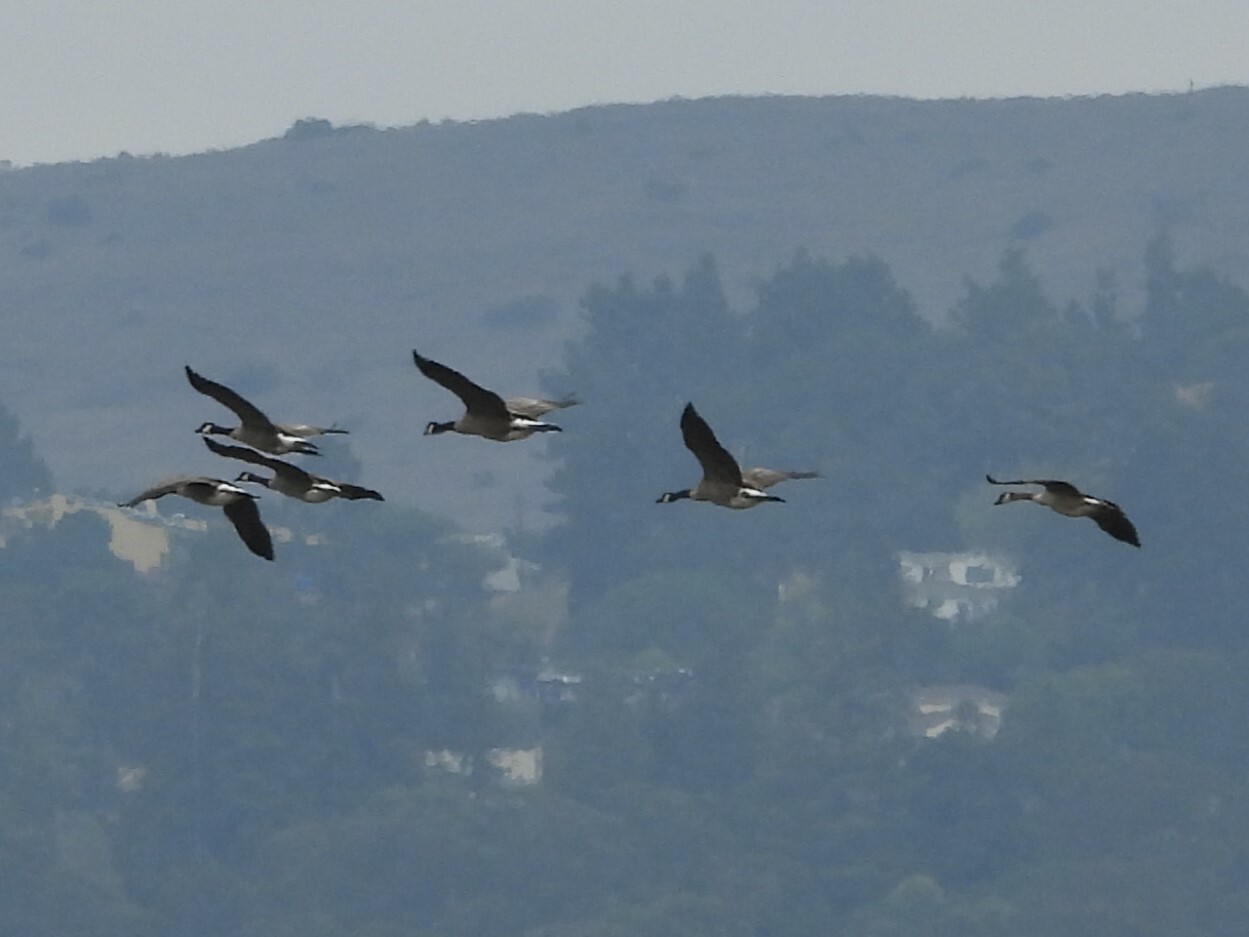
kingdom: Animalia
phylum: Chordata
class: Aves
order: Anseriformes
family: Anatidae
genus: Branta
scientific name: Branta canadensis
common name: Canada goose
